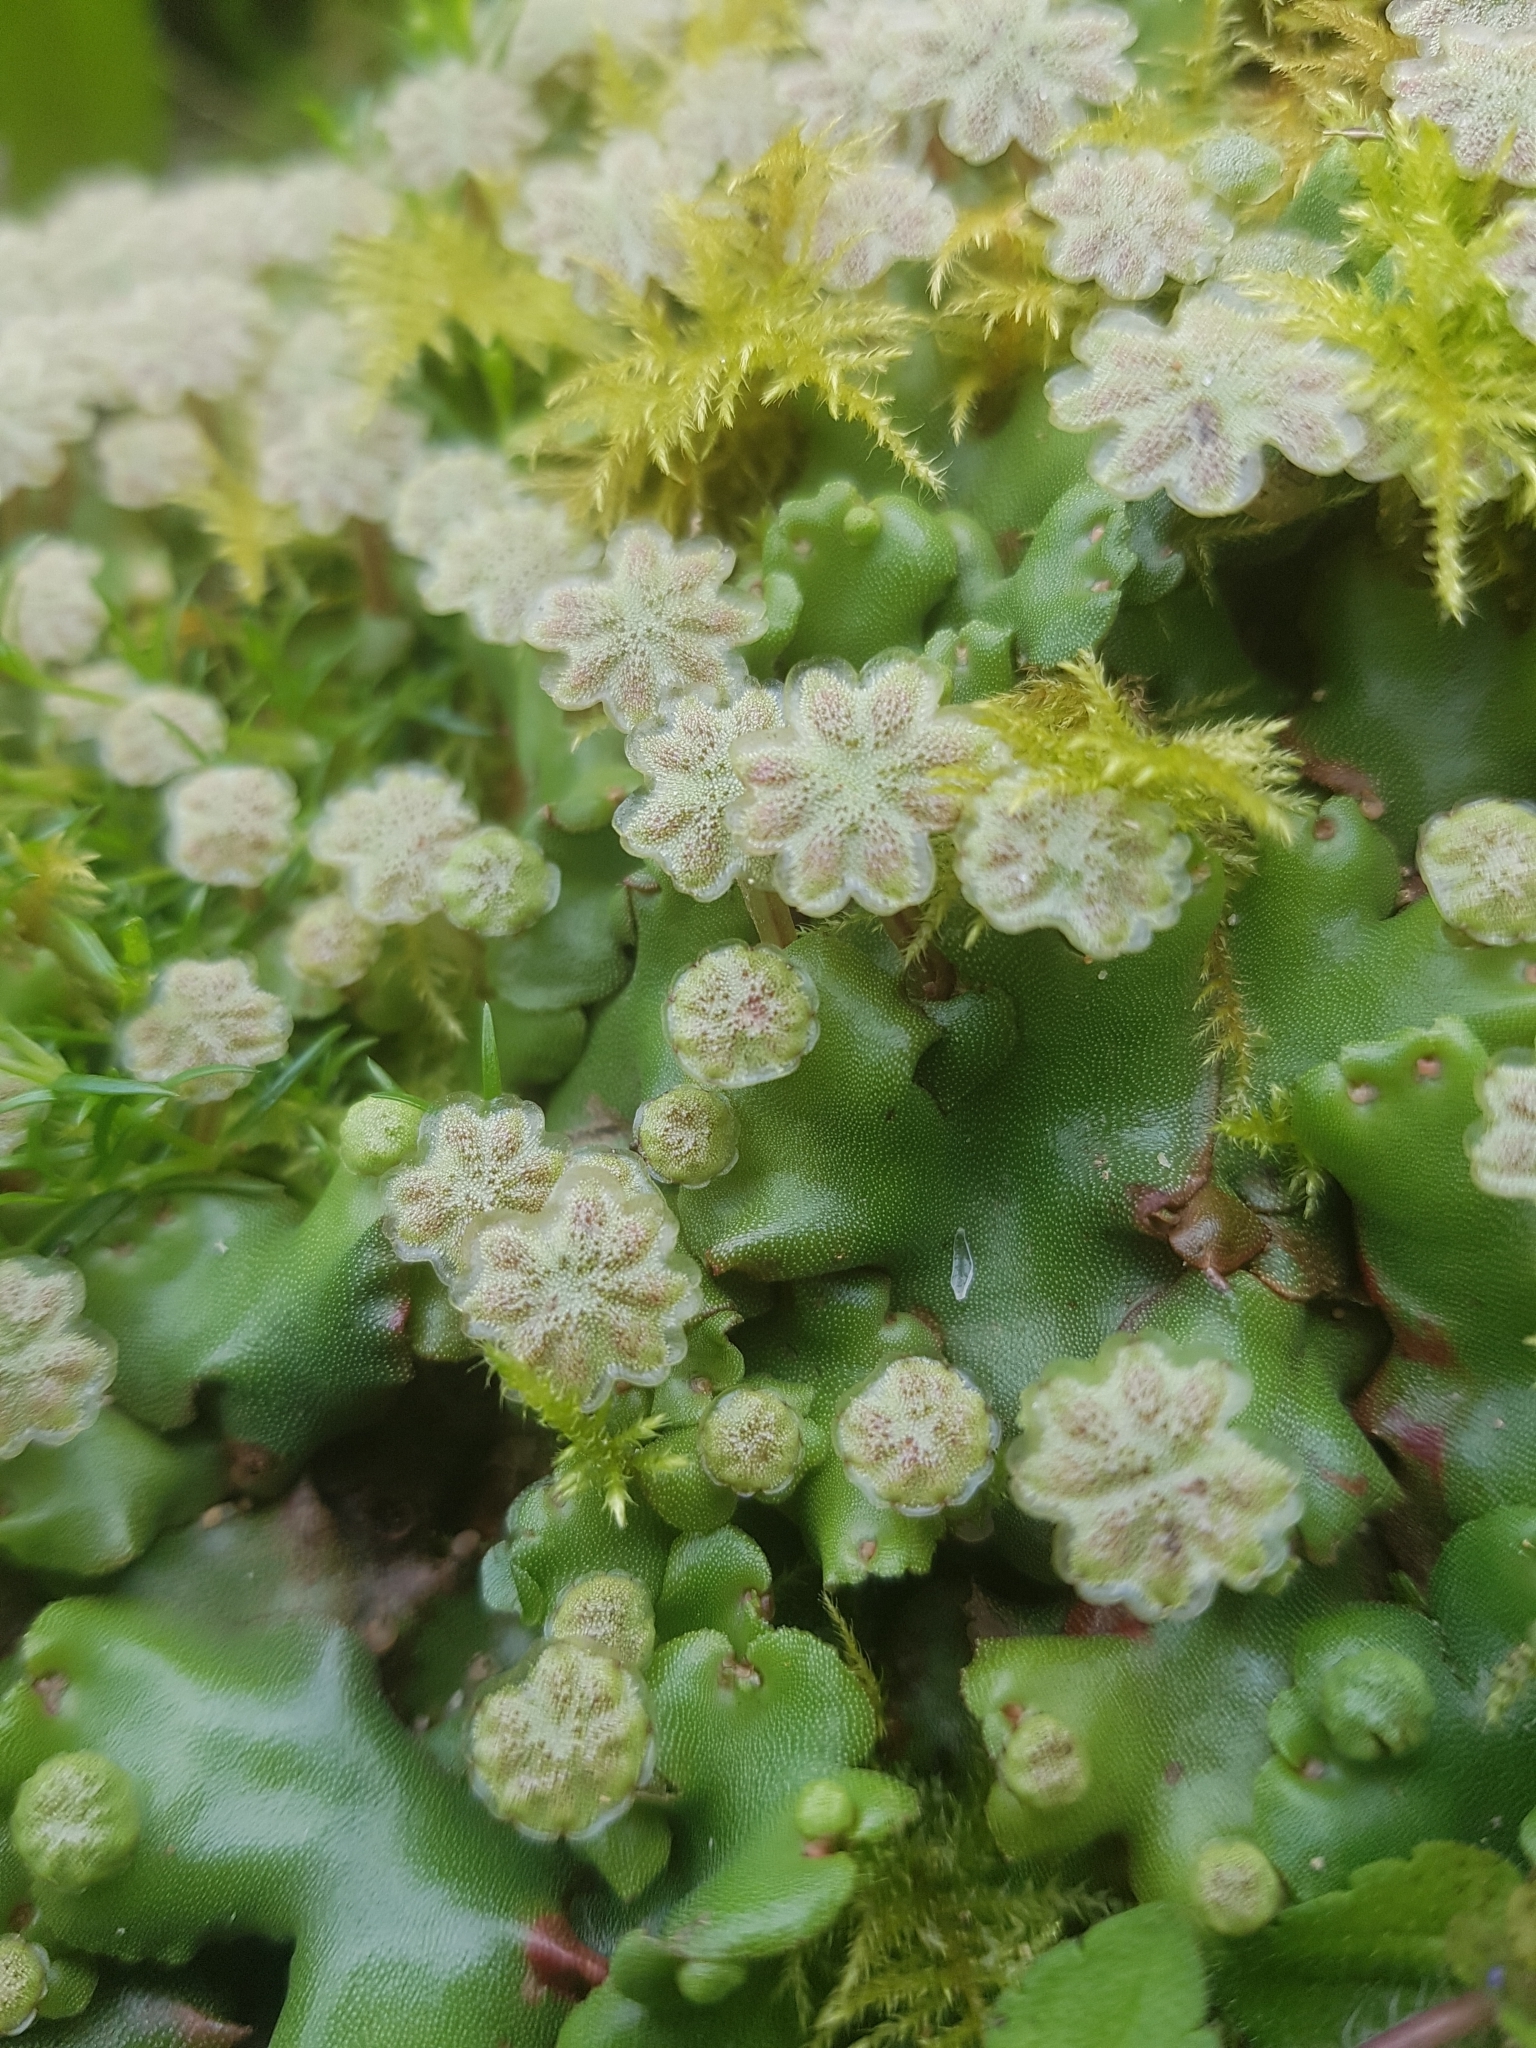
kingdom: Plantae
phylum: Marchantiophyta
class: Marchantiopsida
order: Marchantiales
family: Marchantiaceae
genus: Marchantia
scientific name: Marchantia berteroana
